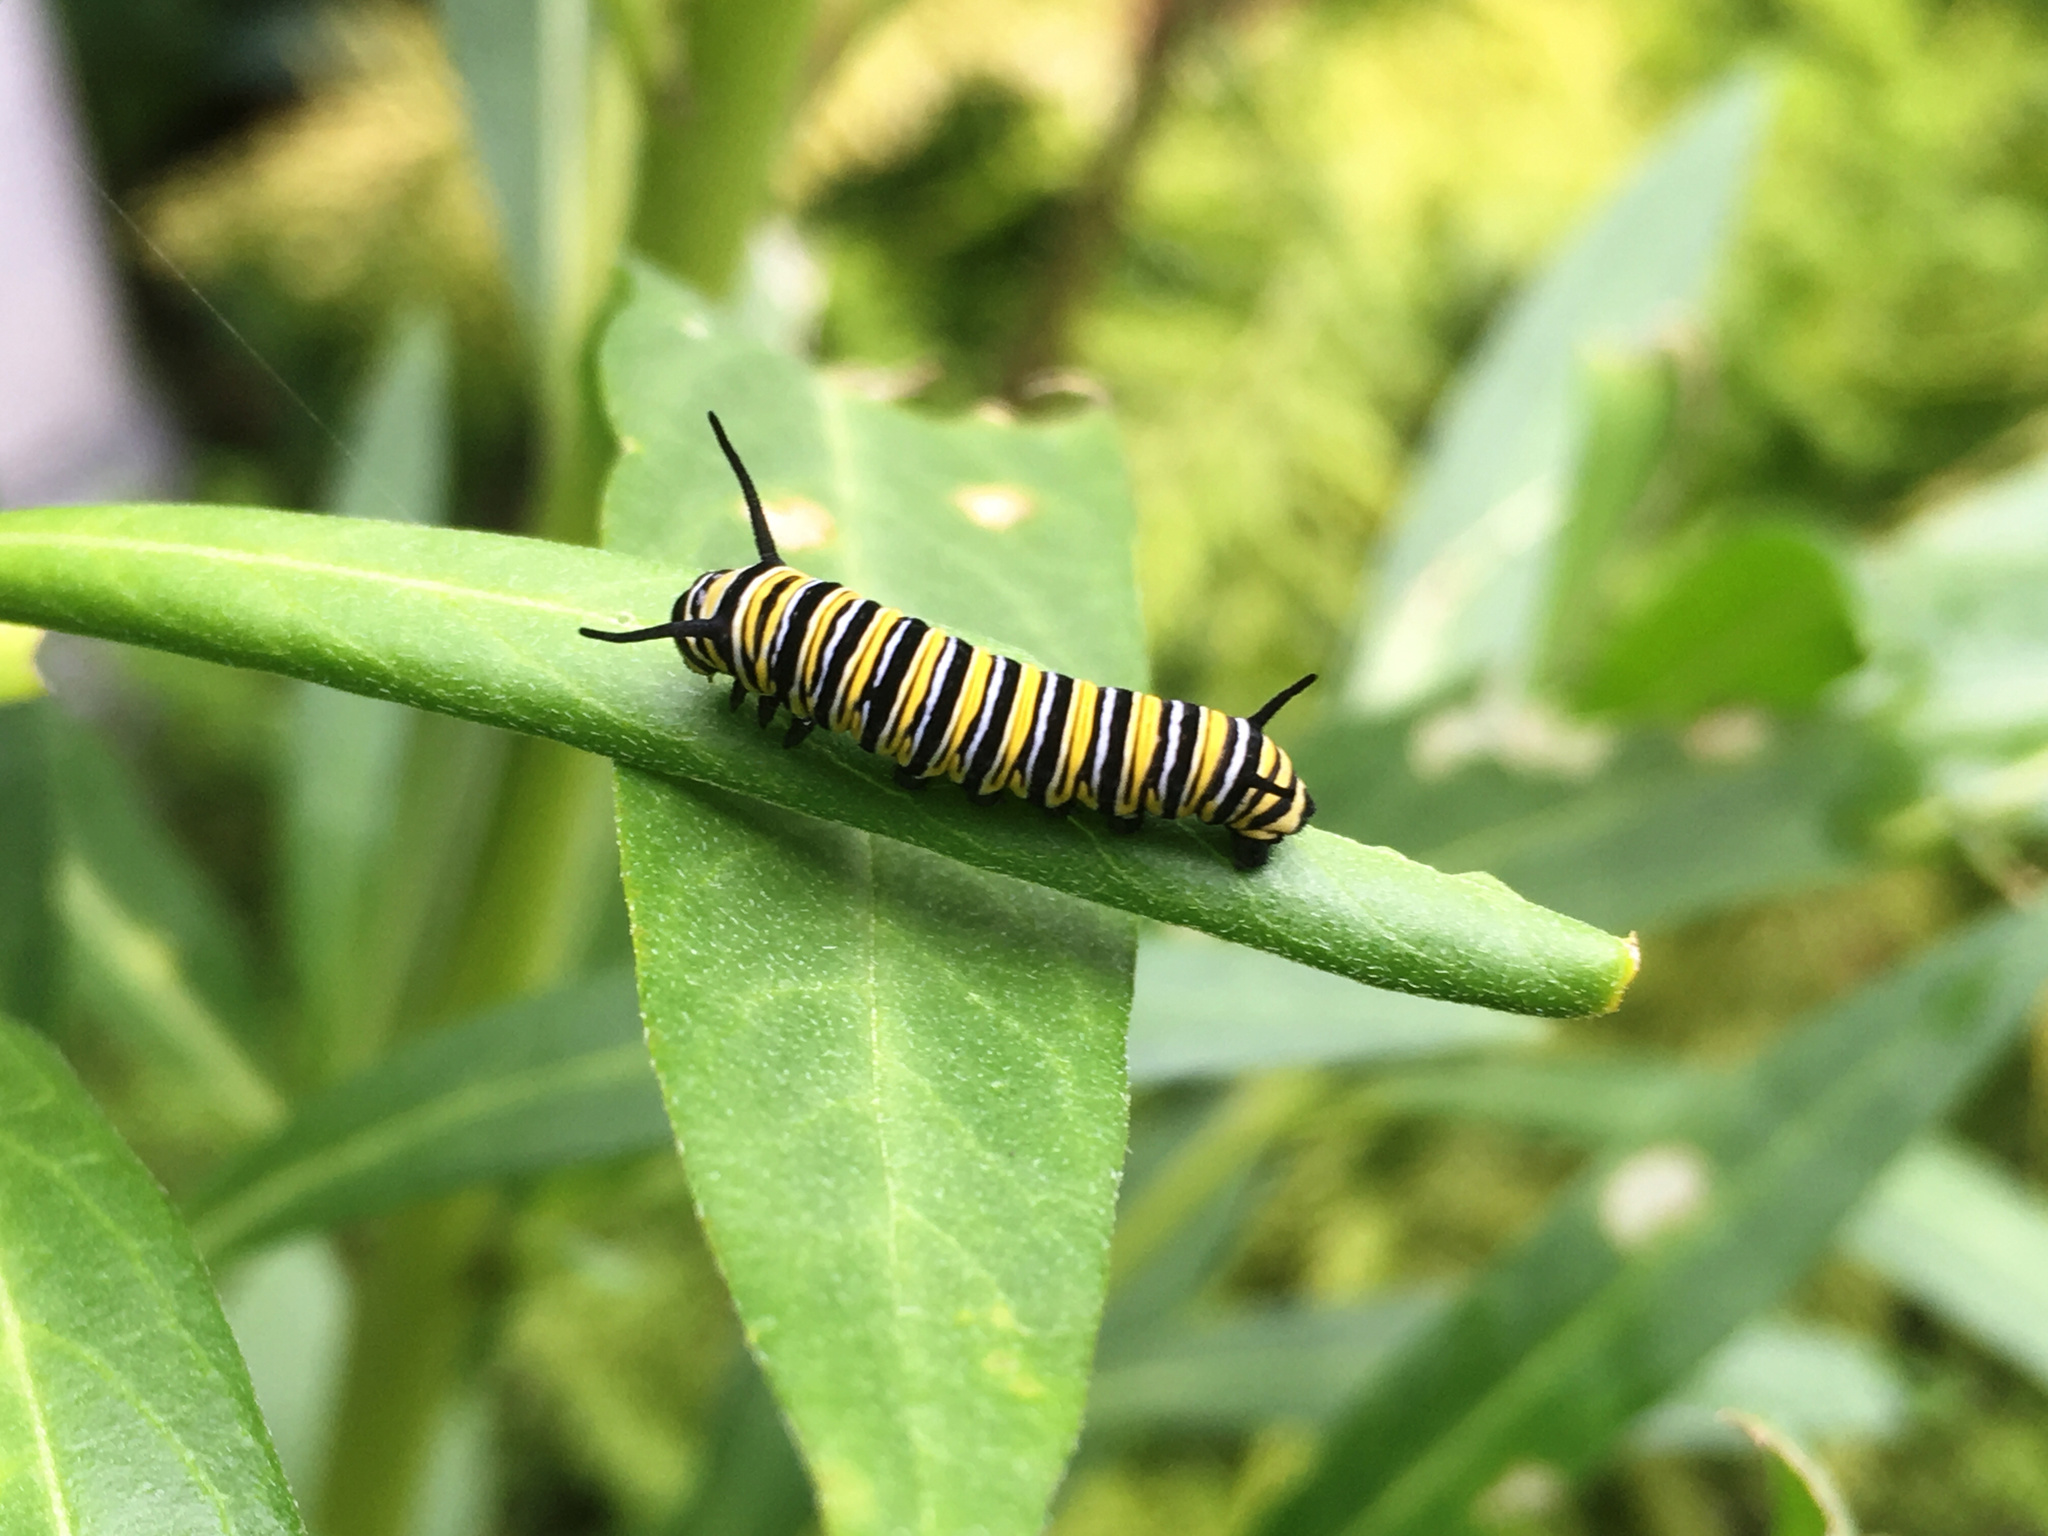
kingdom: Animalia
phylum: Arthropoda
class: Insecta
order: Lepidoptera
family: Nymphalidae
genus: Danaus
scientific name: Danaus plexippus
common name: Monarch
